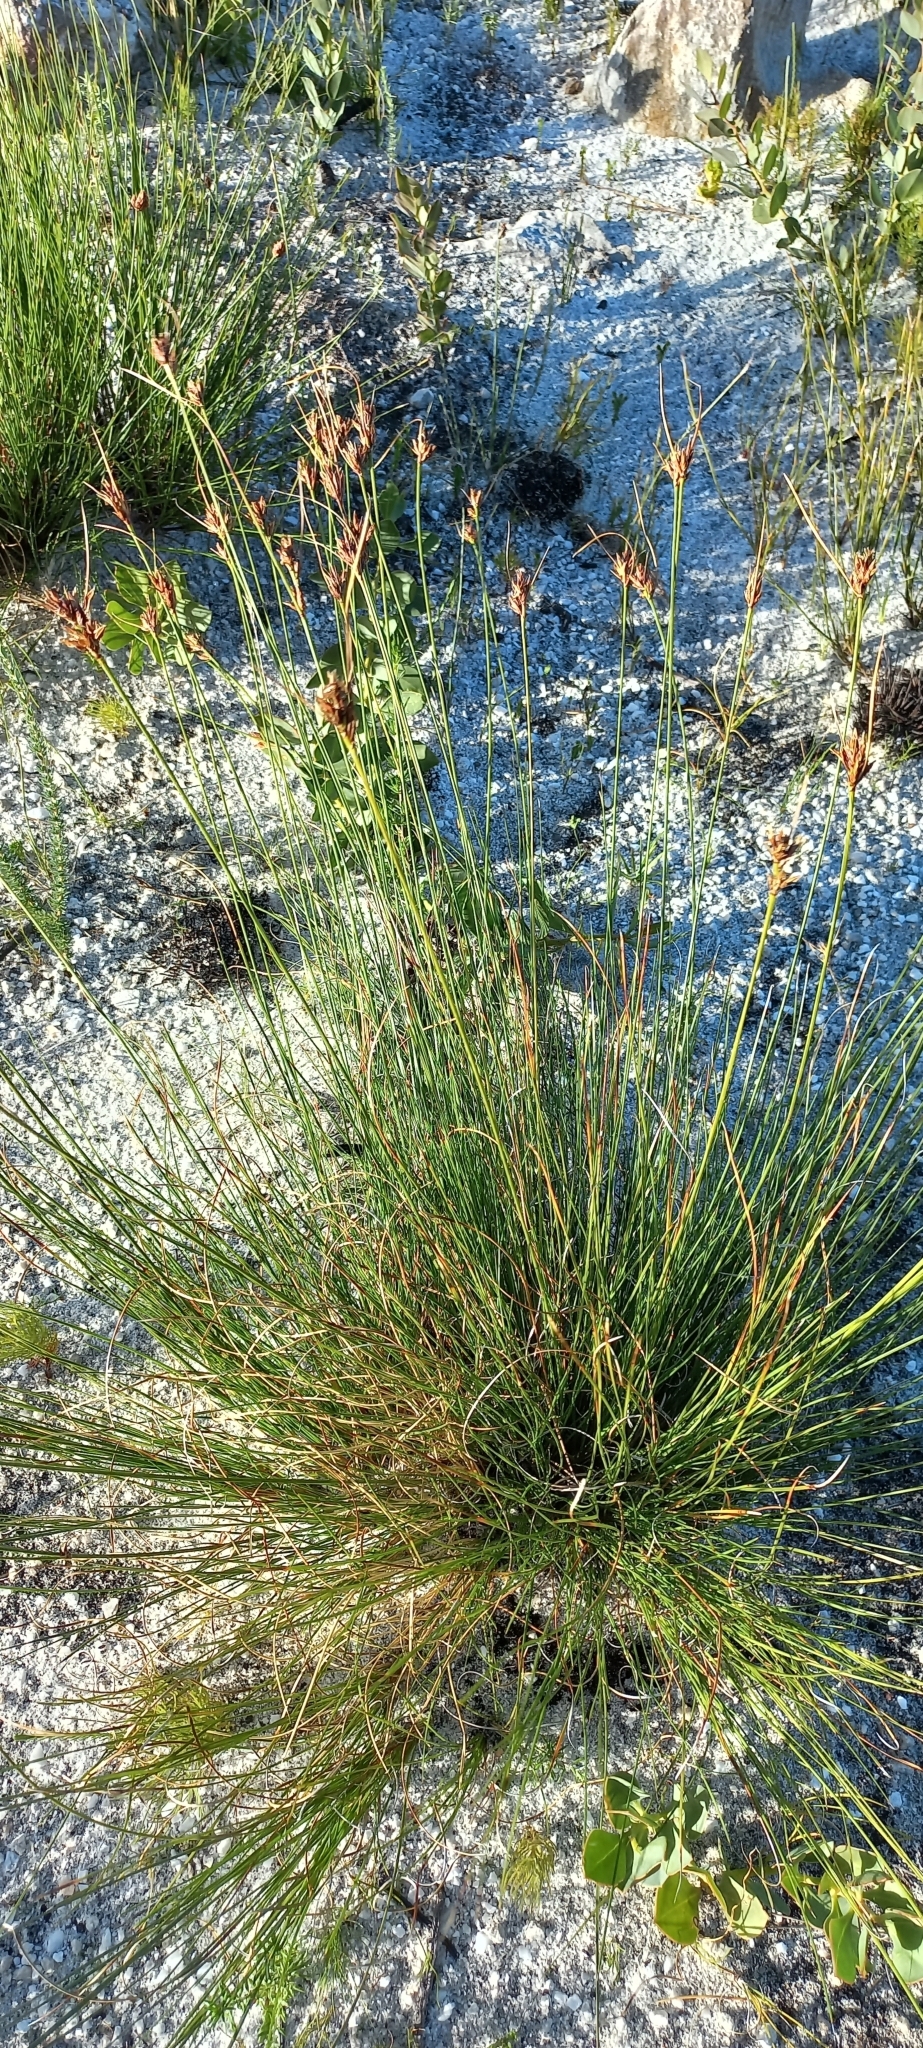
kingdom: Plantae
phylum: Tracheophyta
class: Liliopsida
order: Poales
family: Cyperaceae
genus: Schoenus
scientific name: Schoenus compar
